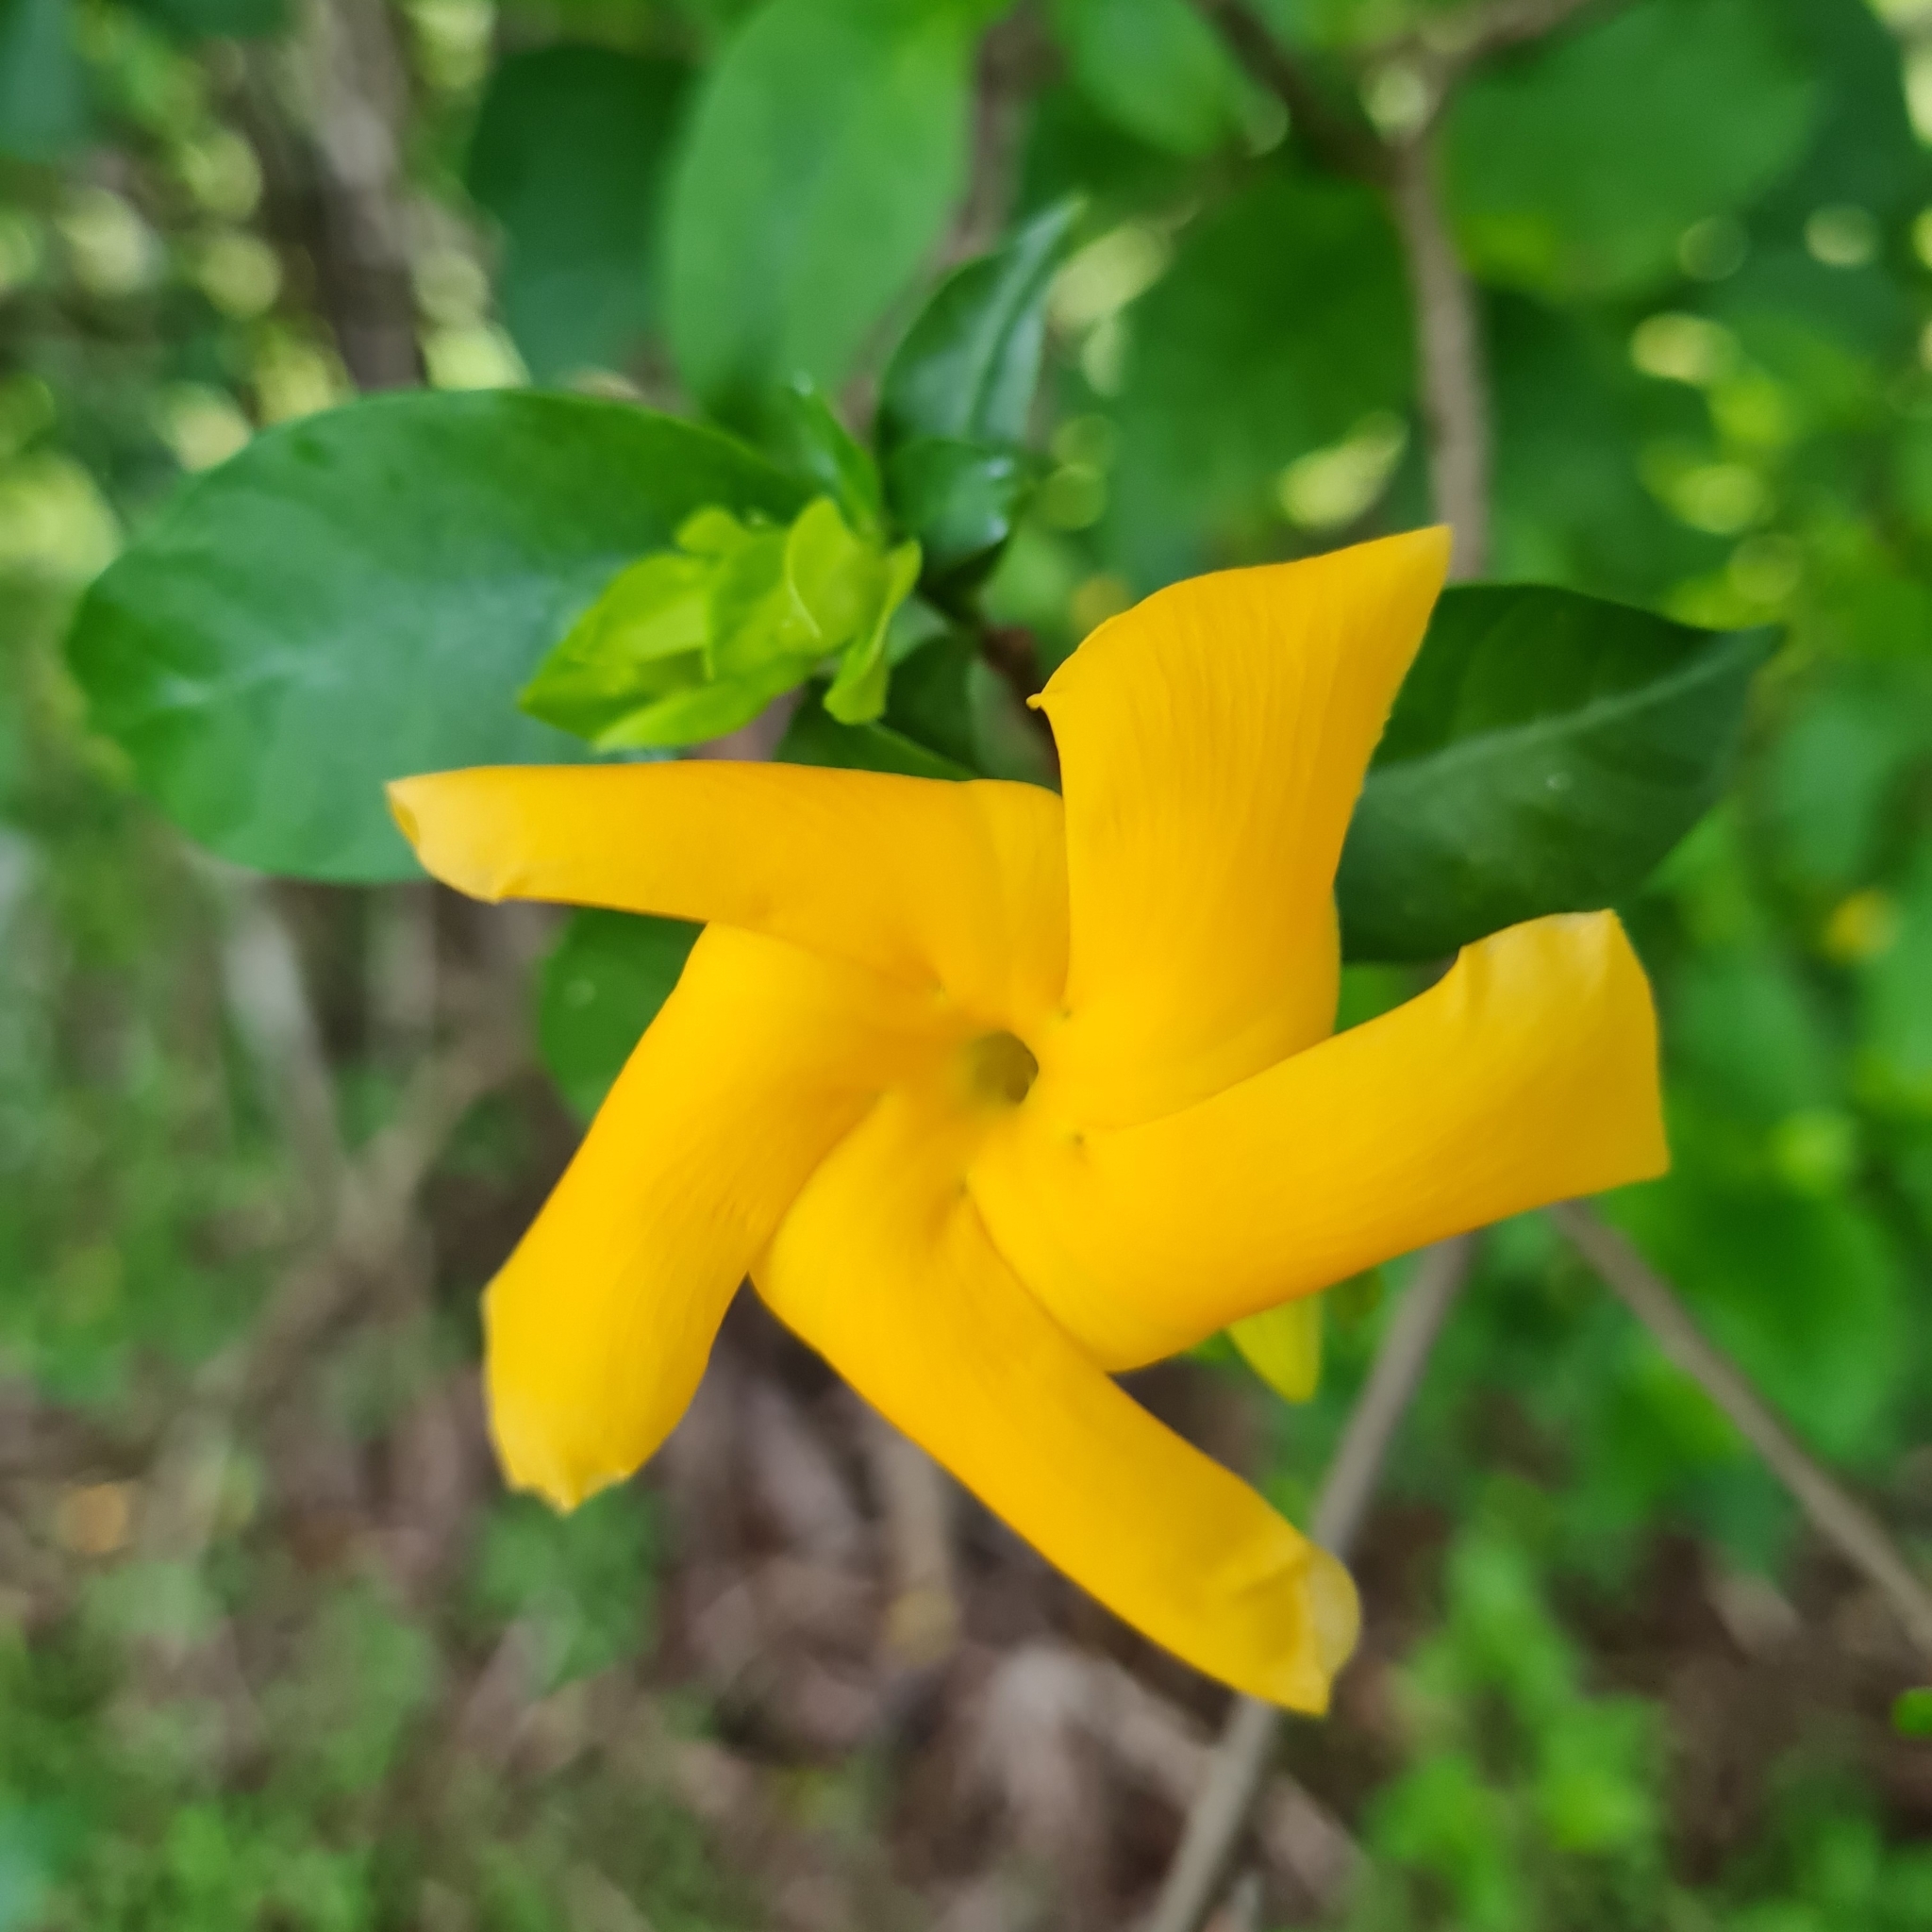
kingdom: Plantae
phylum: Tracheophyta
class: Magnoliopsida
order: Gentianales
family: Apocynaceae
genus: Tabernaemontana
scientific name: Tabernaemontana grandiflora
